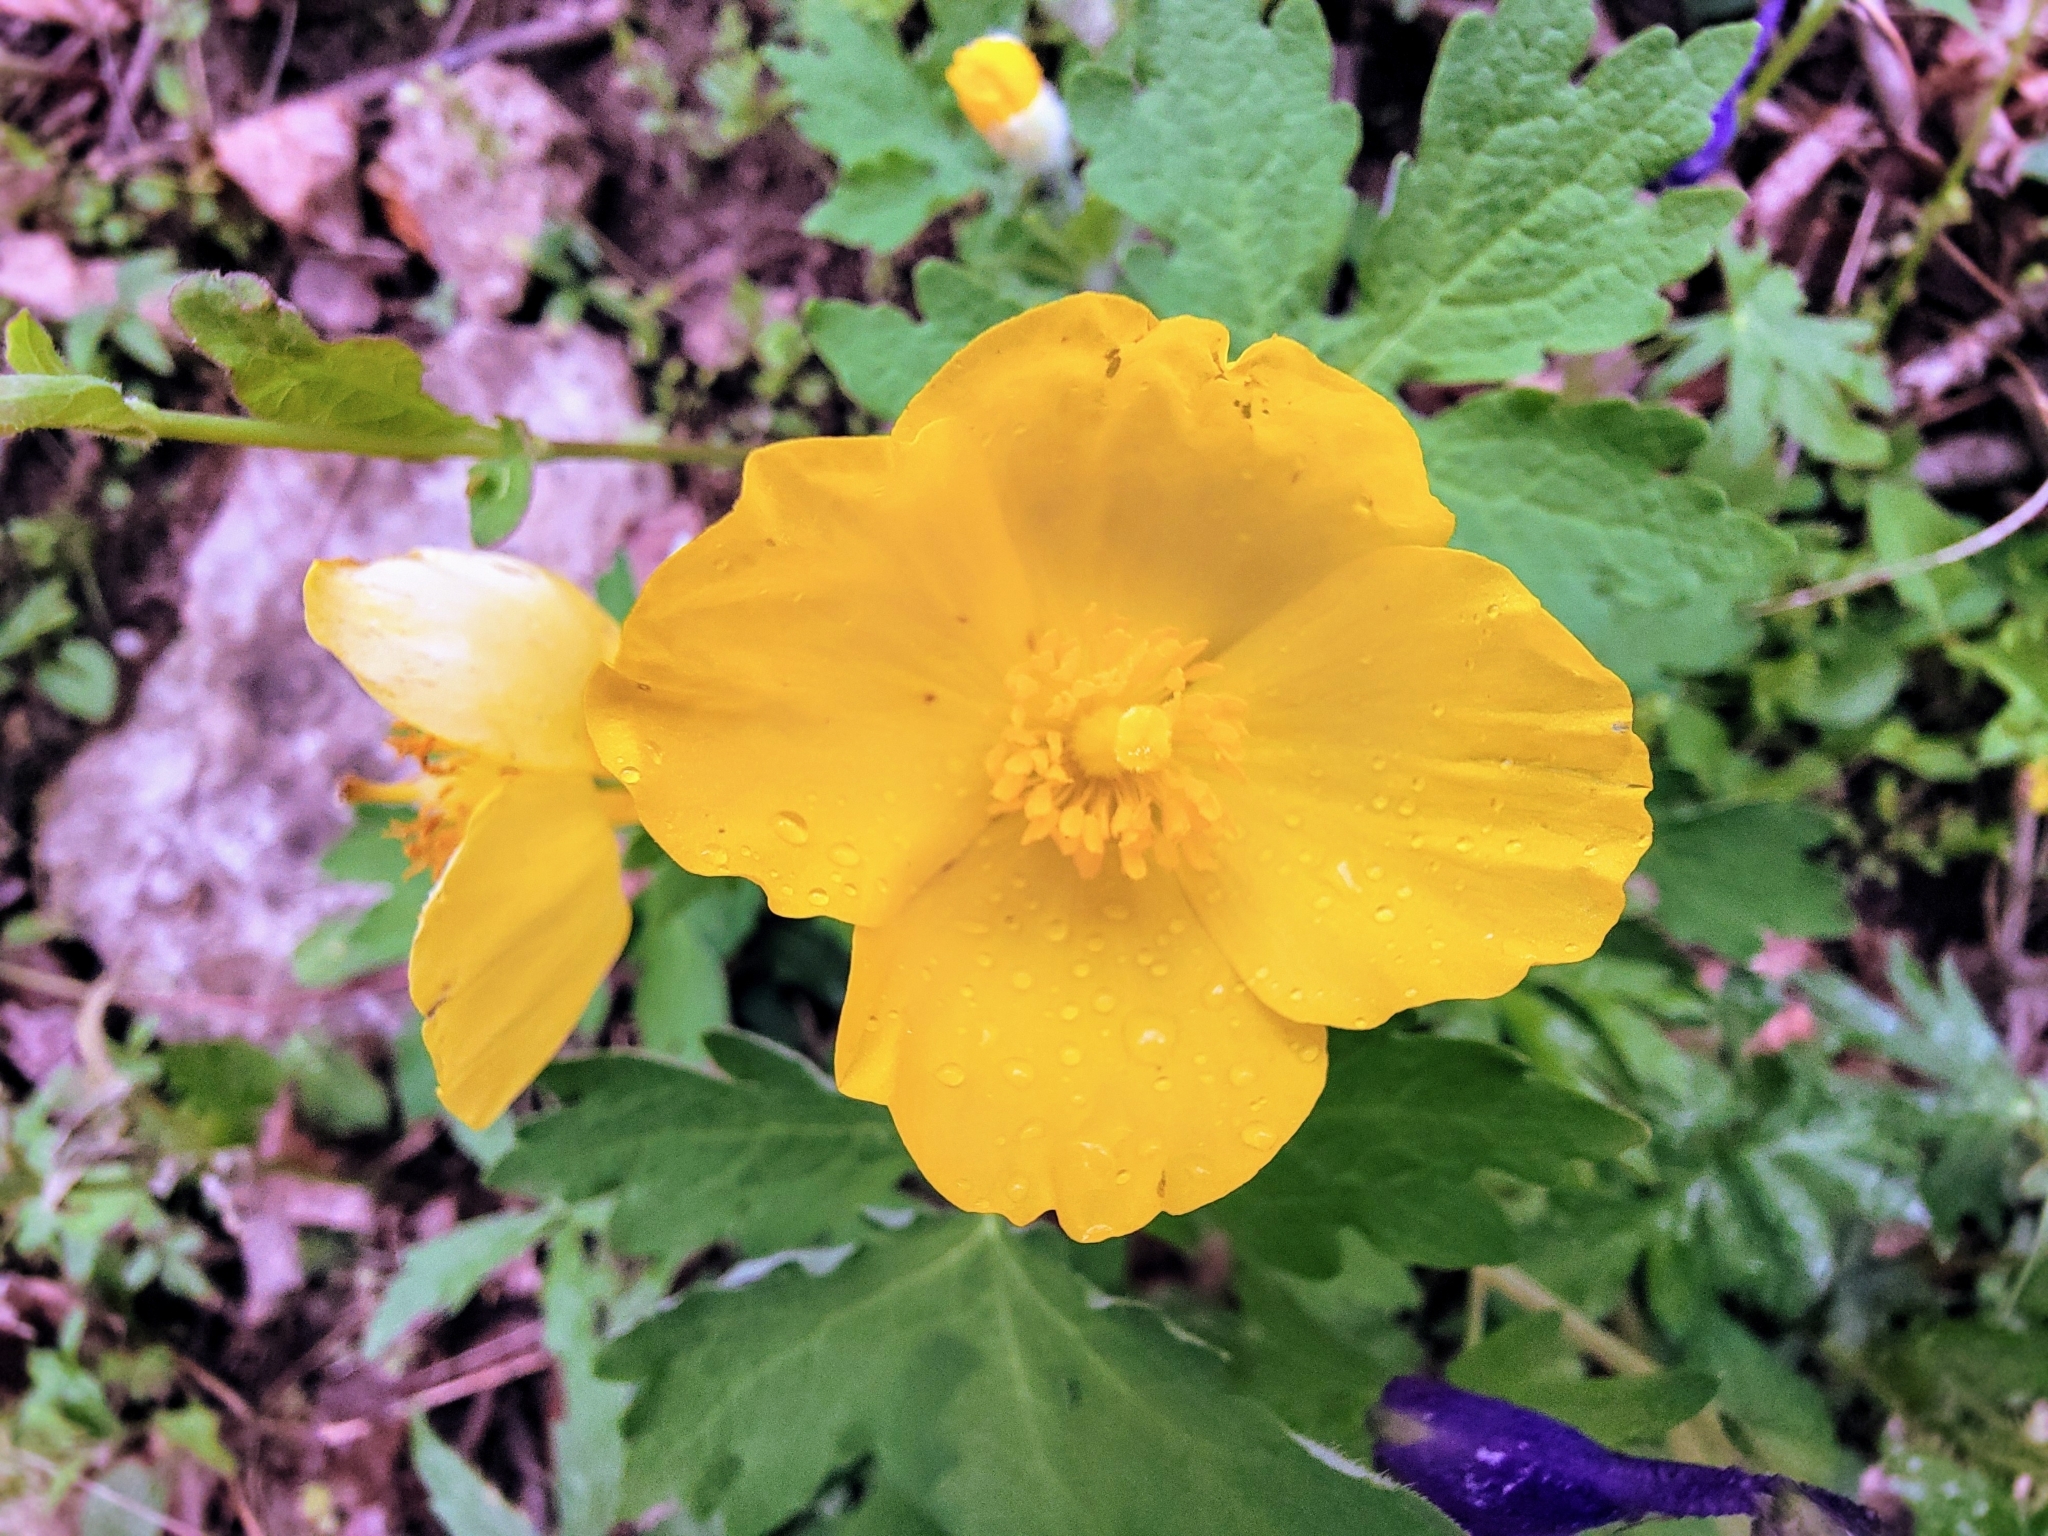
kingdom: Plantae
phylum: Tracheophyta
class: Magnoliopsida
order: Ranunculales
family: Papaveraceae
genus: Stylophorum
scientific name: Stylophorum diphyllum
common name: Celandine poppy
